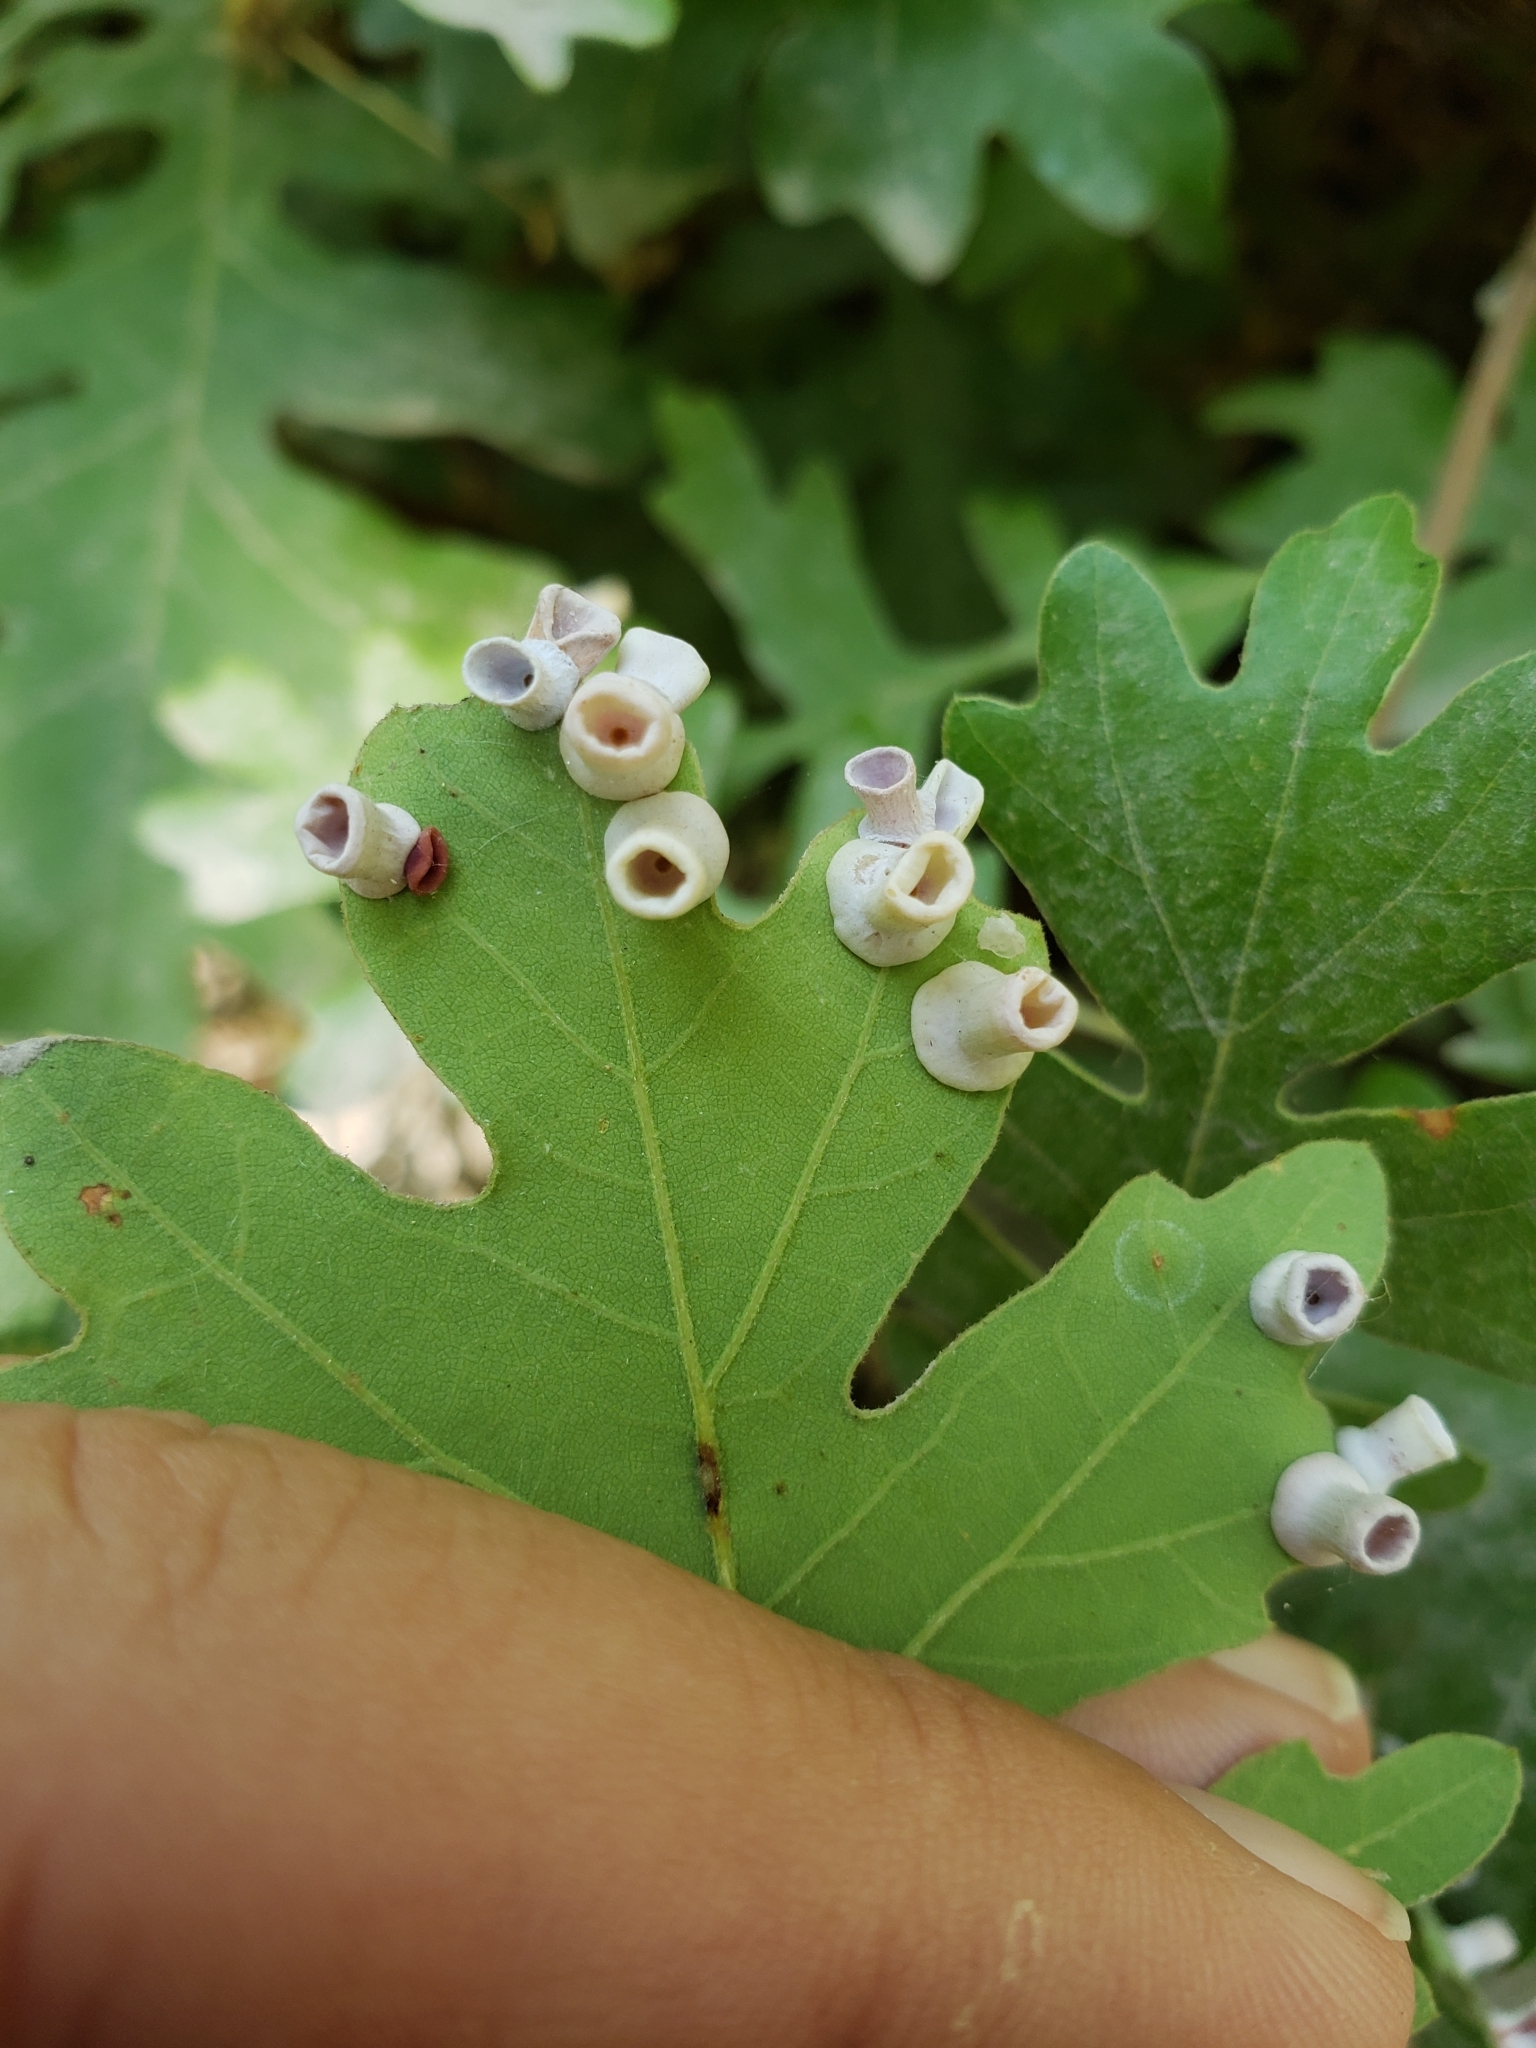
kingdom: Animalia
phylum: Arthropoda
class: Insecta
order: Hymenoptera
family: Cynipidae
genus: Andricus
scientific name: Andricus
